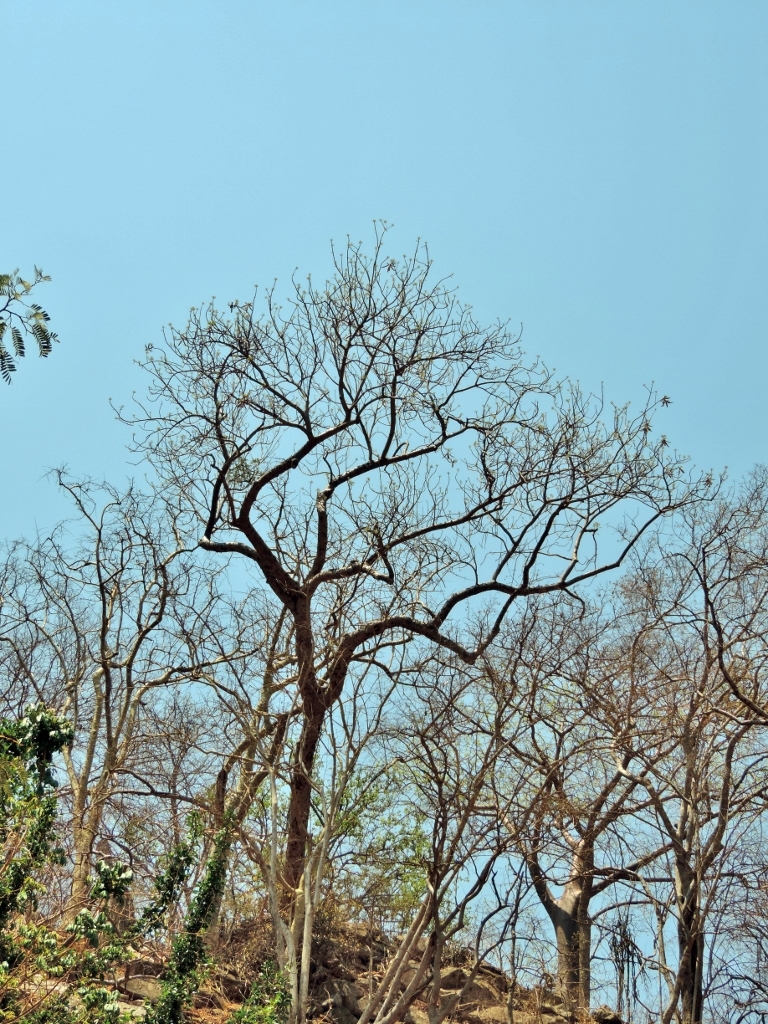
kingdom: Plantae
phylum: Tracheophyta
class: Magnoliopsida
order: Sapindales
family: Meliaceae
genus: Entandrophragma
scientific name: Entandrophragma caudatum
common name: Mountain-mahogany
